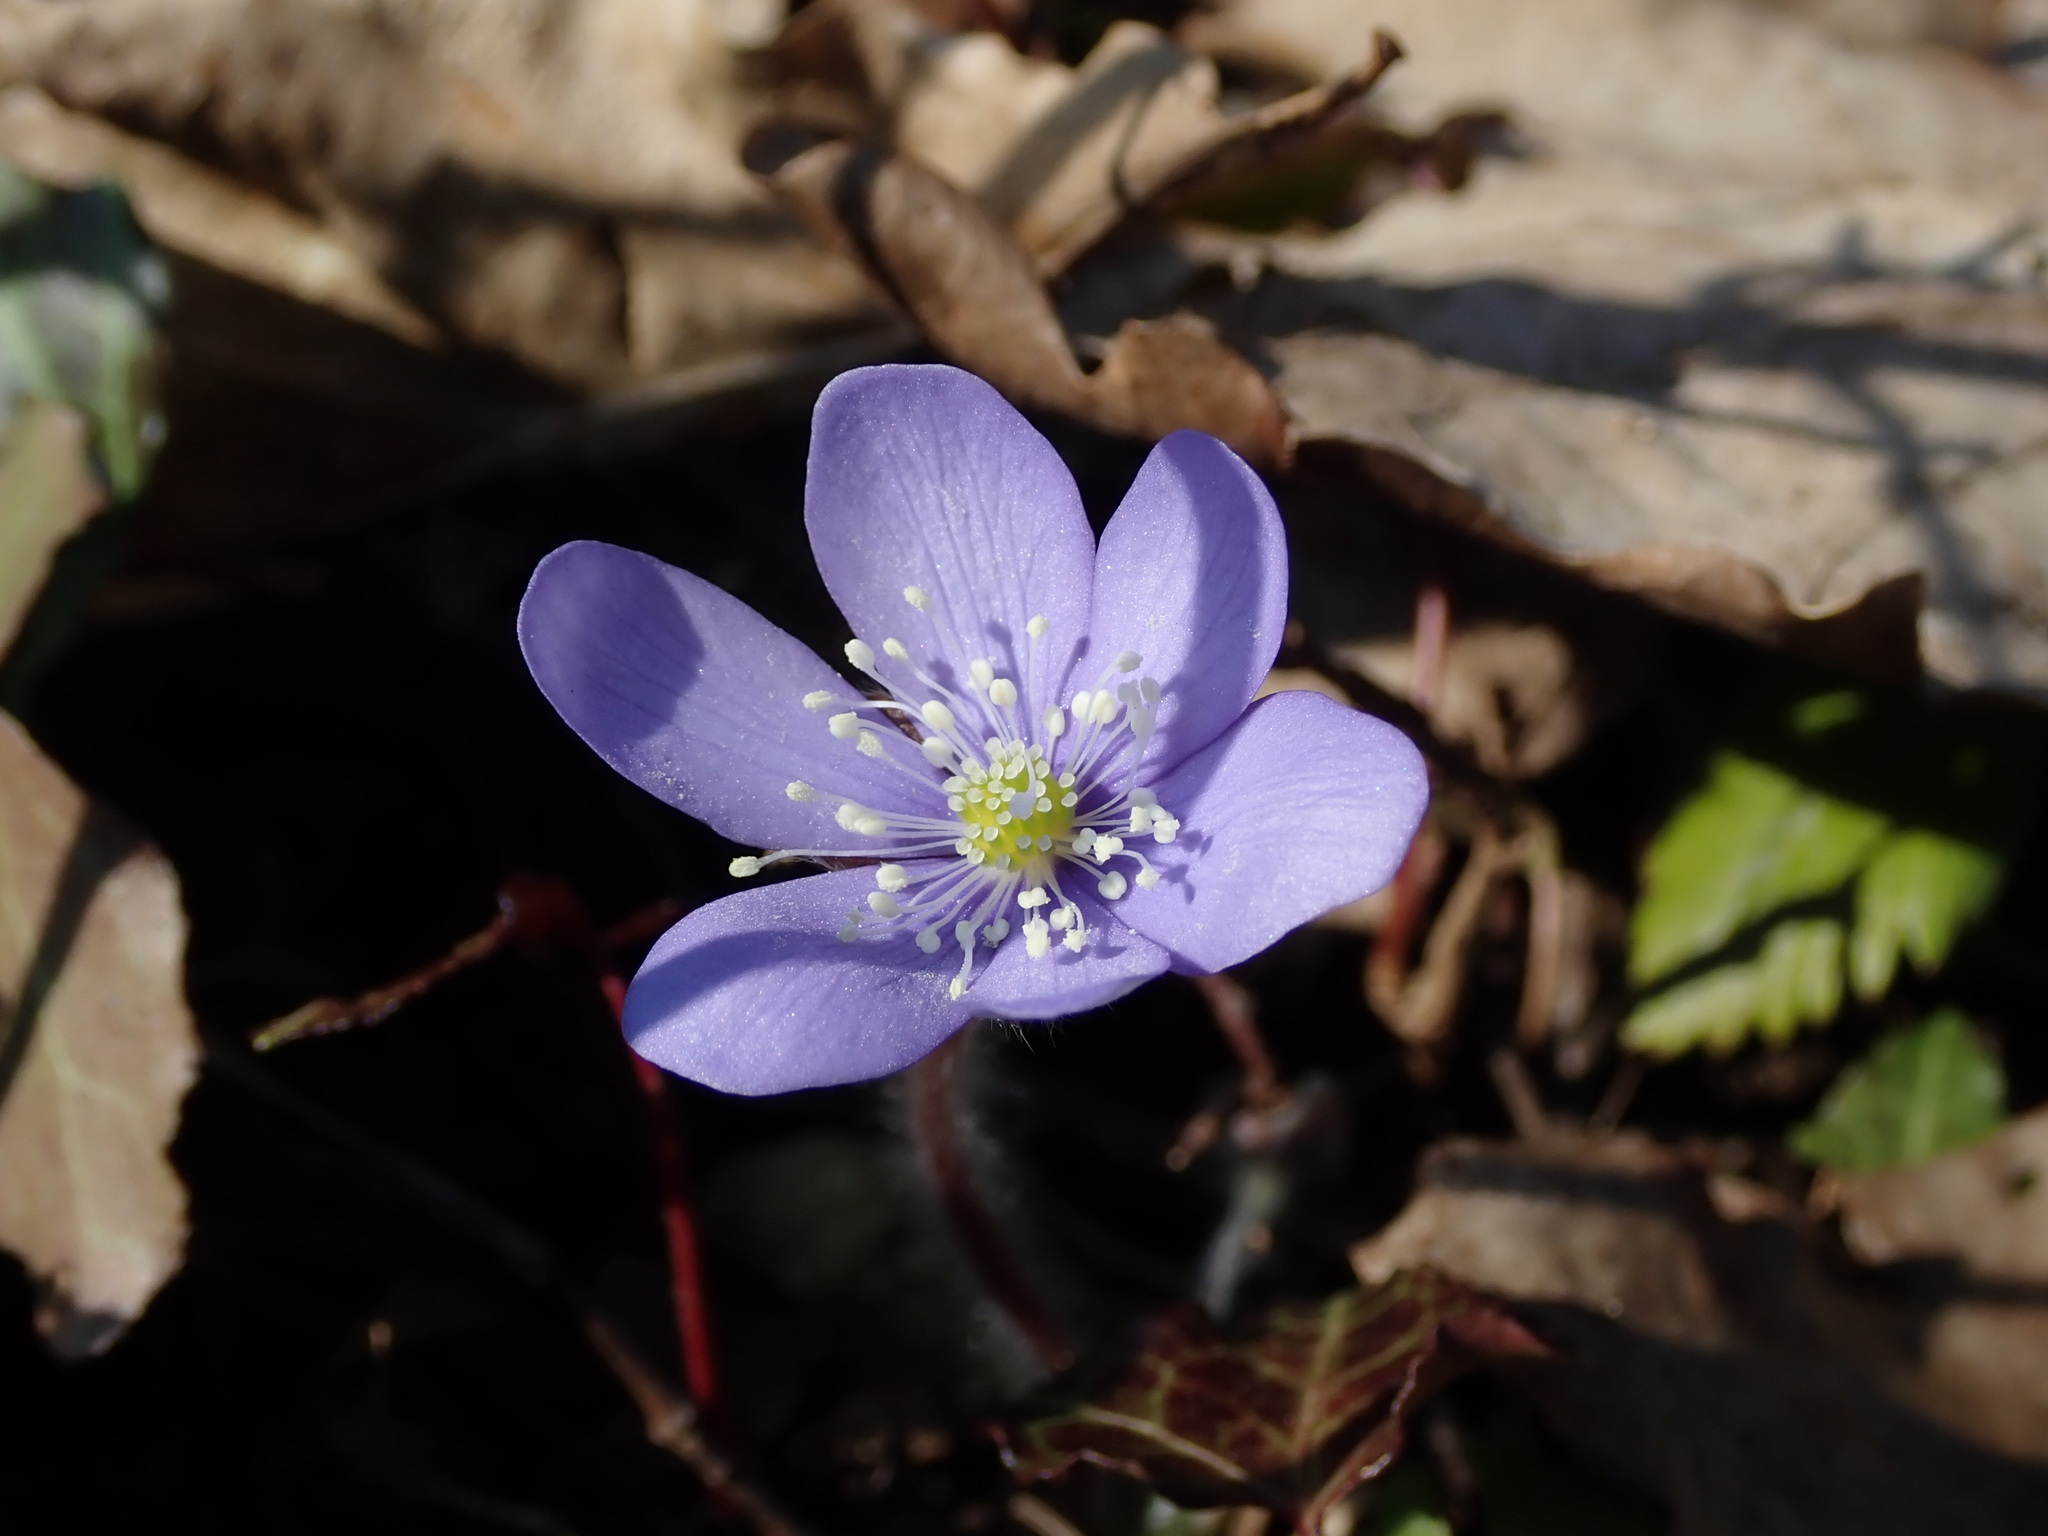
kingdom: Plantae
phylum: Tracheophyta
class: Magnoliopsida
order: Ranunculales
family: Ranunculaceae
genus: Hepatica
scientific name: Hepatica nobilis
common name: Liverleaf
